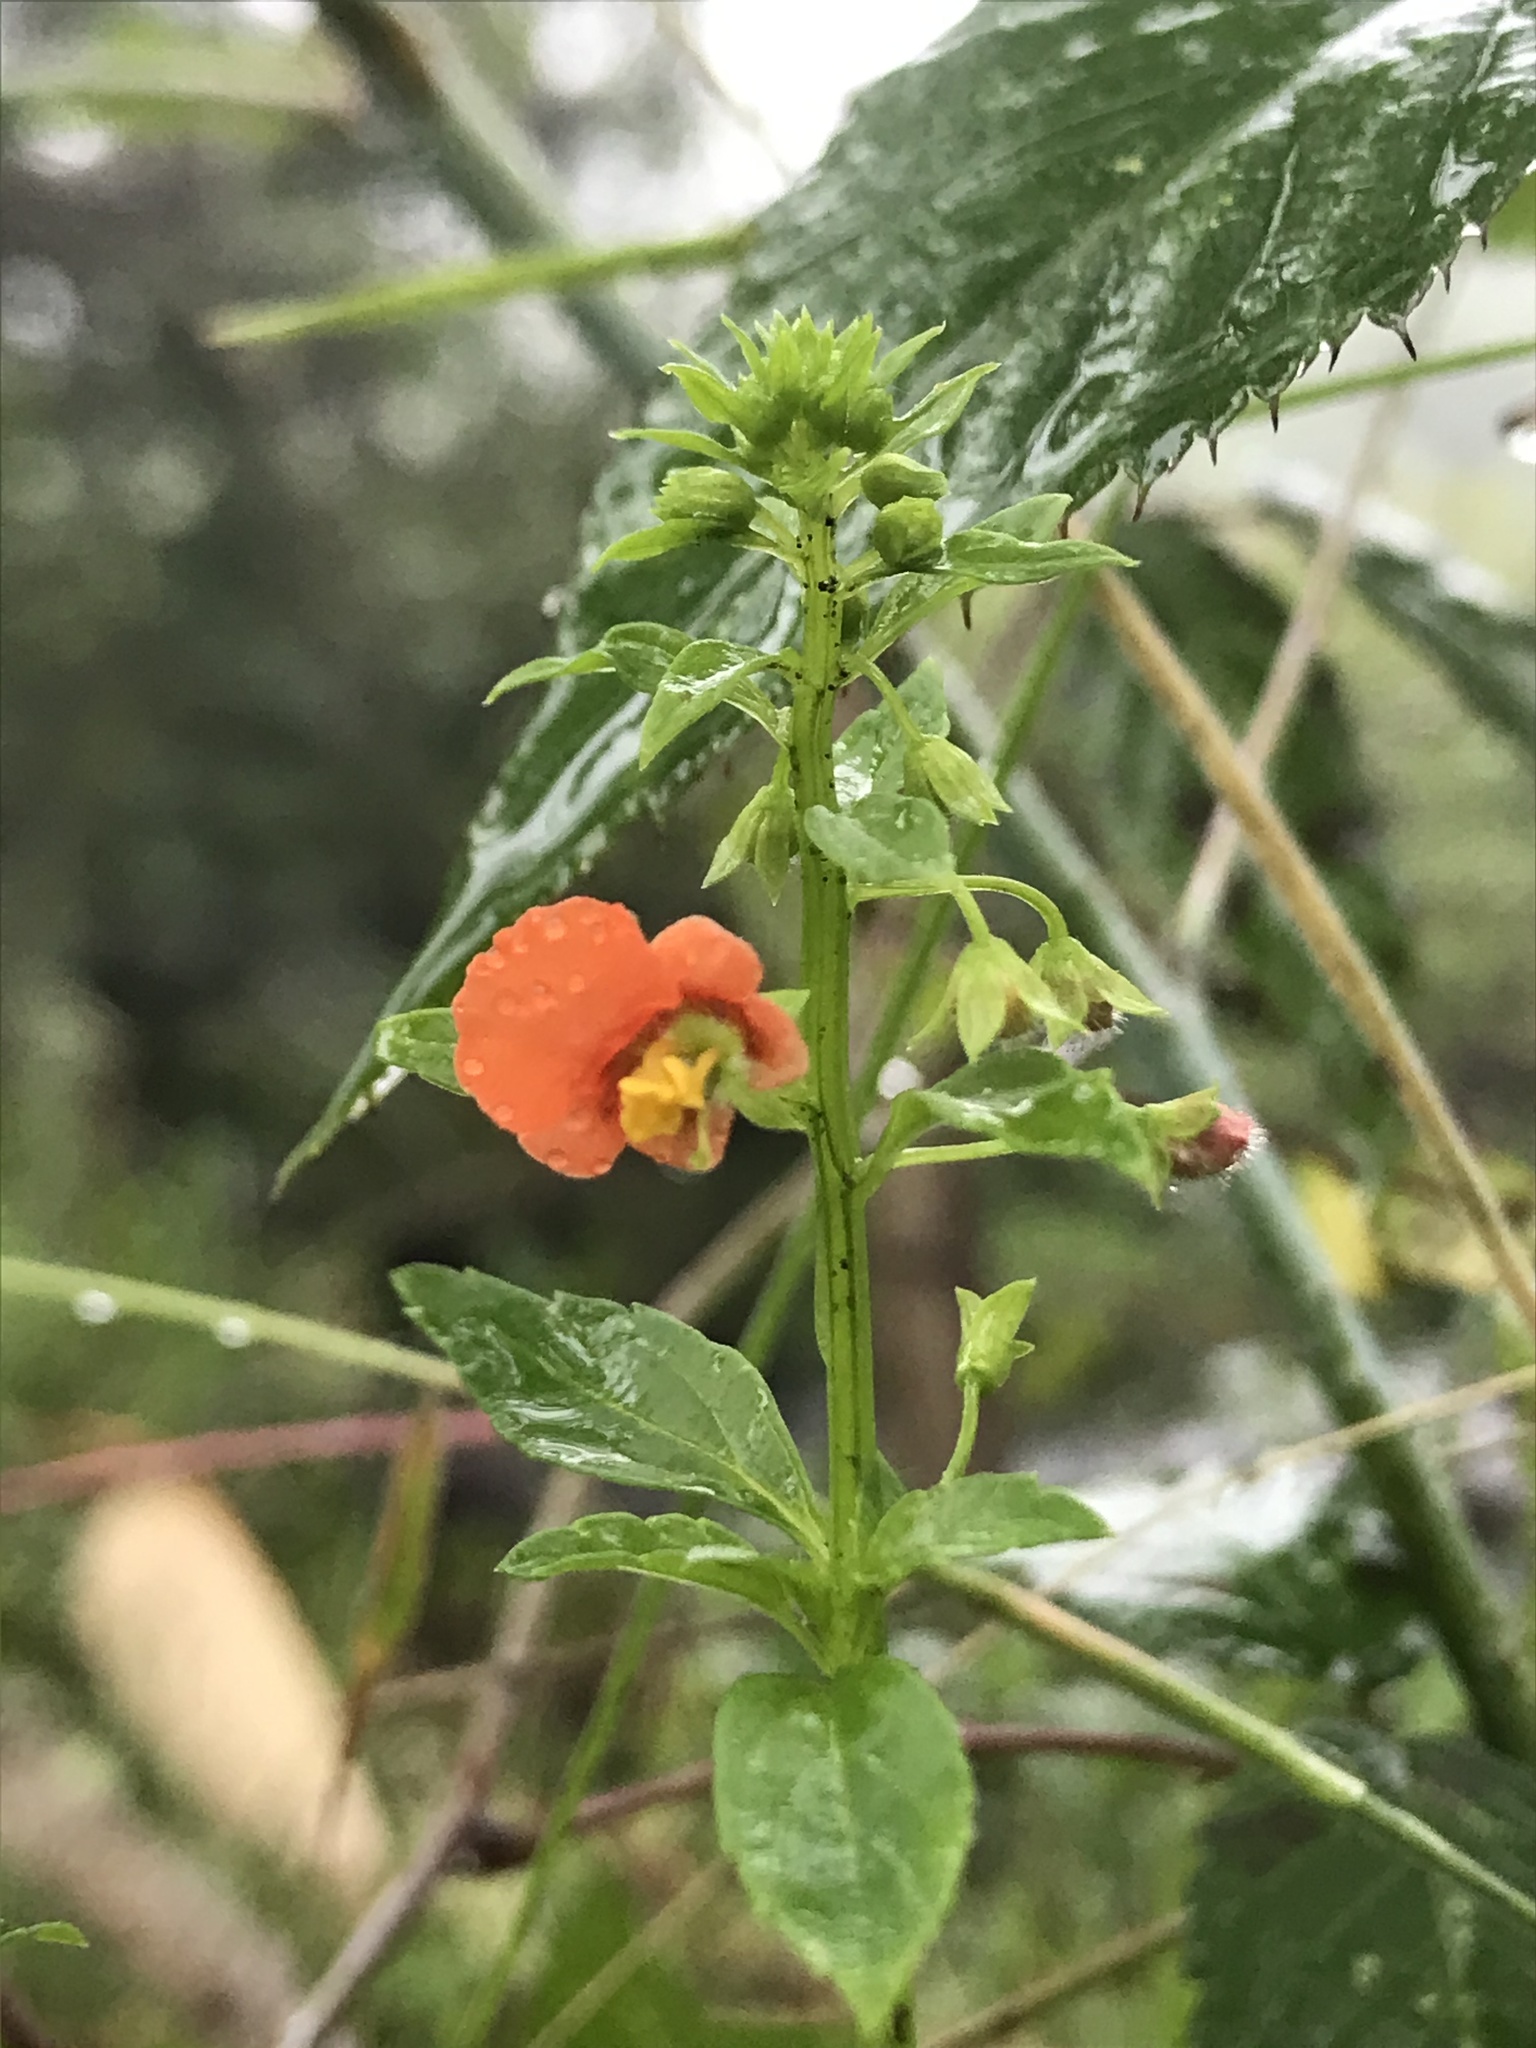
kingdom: Plantae
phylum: Tracheophyta
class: Magnoliopsida
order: Lamiales
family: Scrophulariaceae
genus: Alonsoa
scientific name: Alonsoa meridionalis
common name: Maskflower
